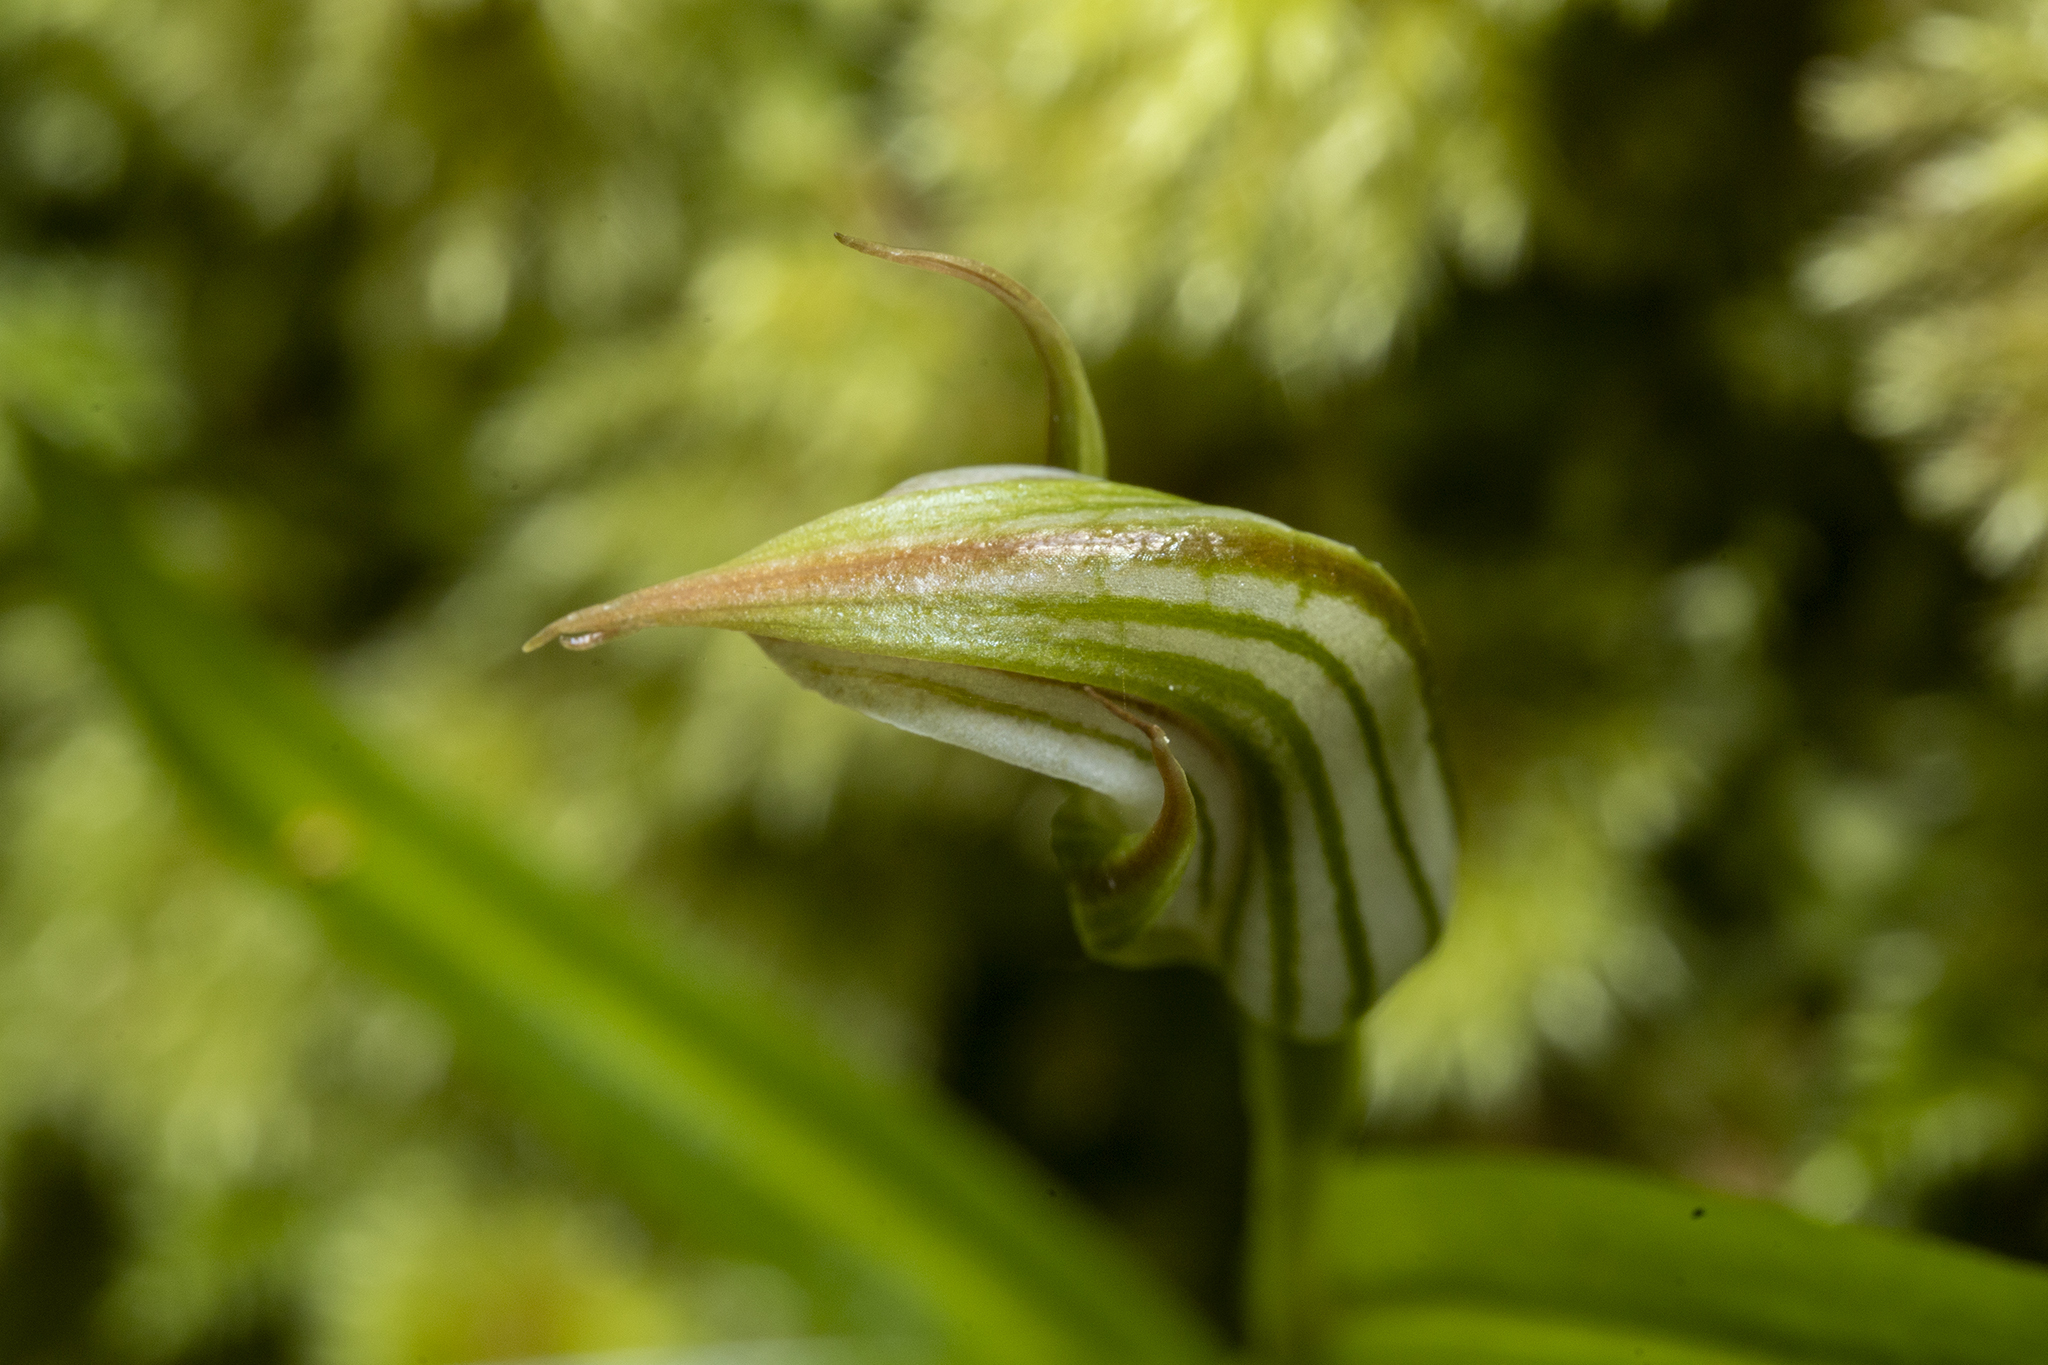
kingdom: Plantae
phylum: Tracheophyta
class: Liliopsida
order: Asparagales
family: Orchidaceae
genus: Pterostylis
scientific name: Pterostylis irsoniana
